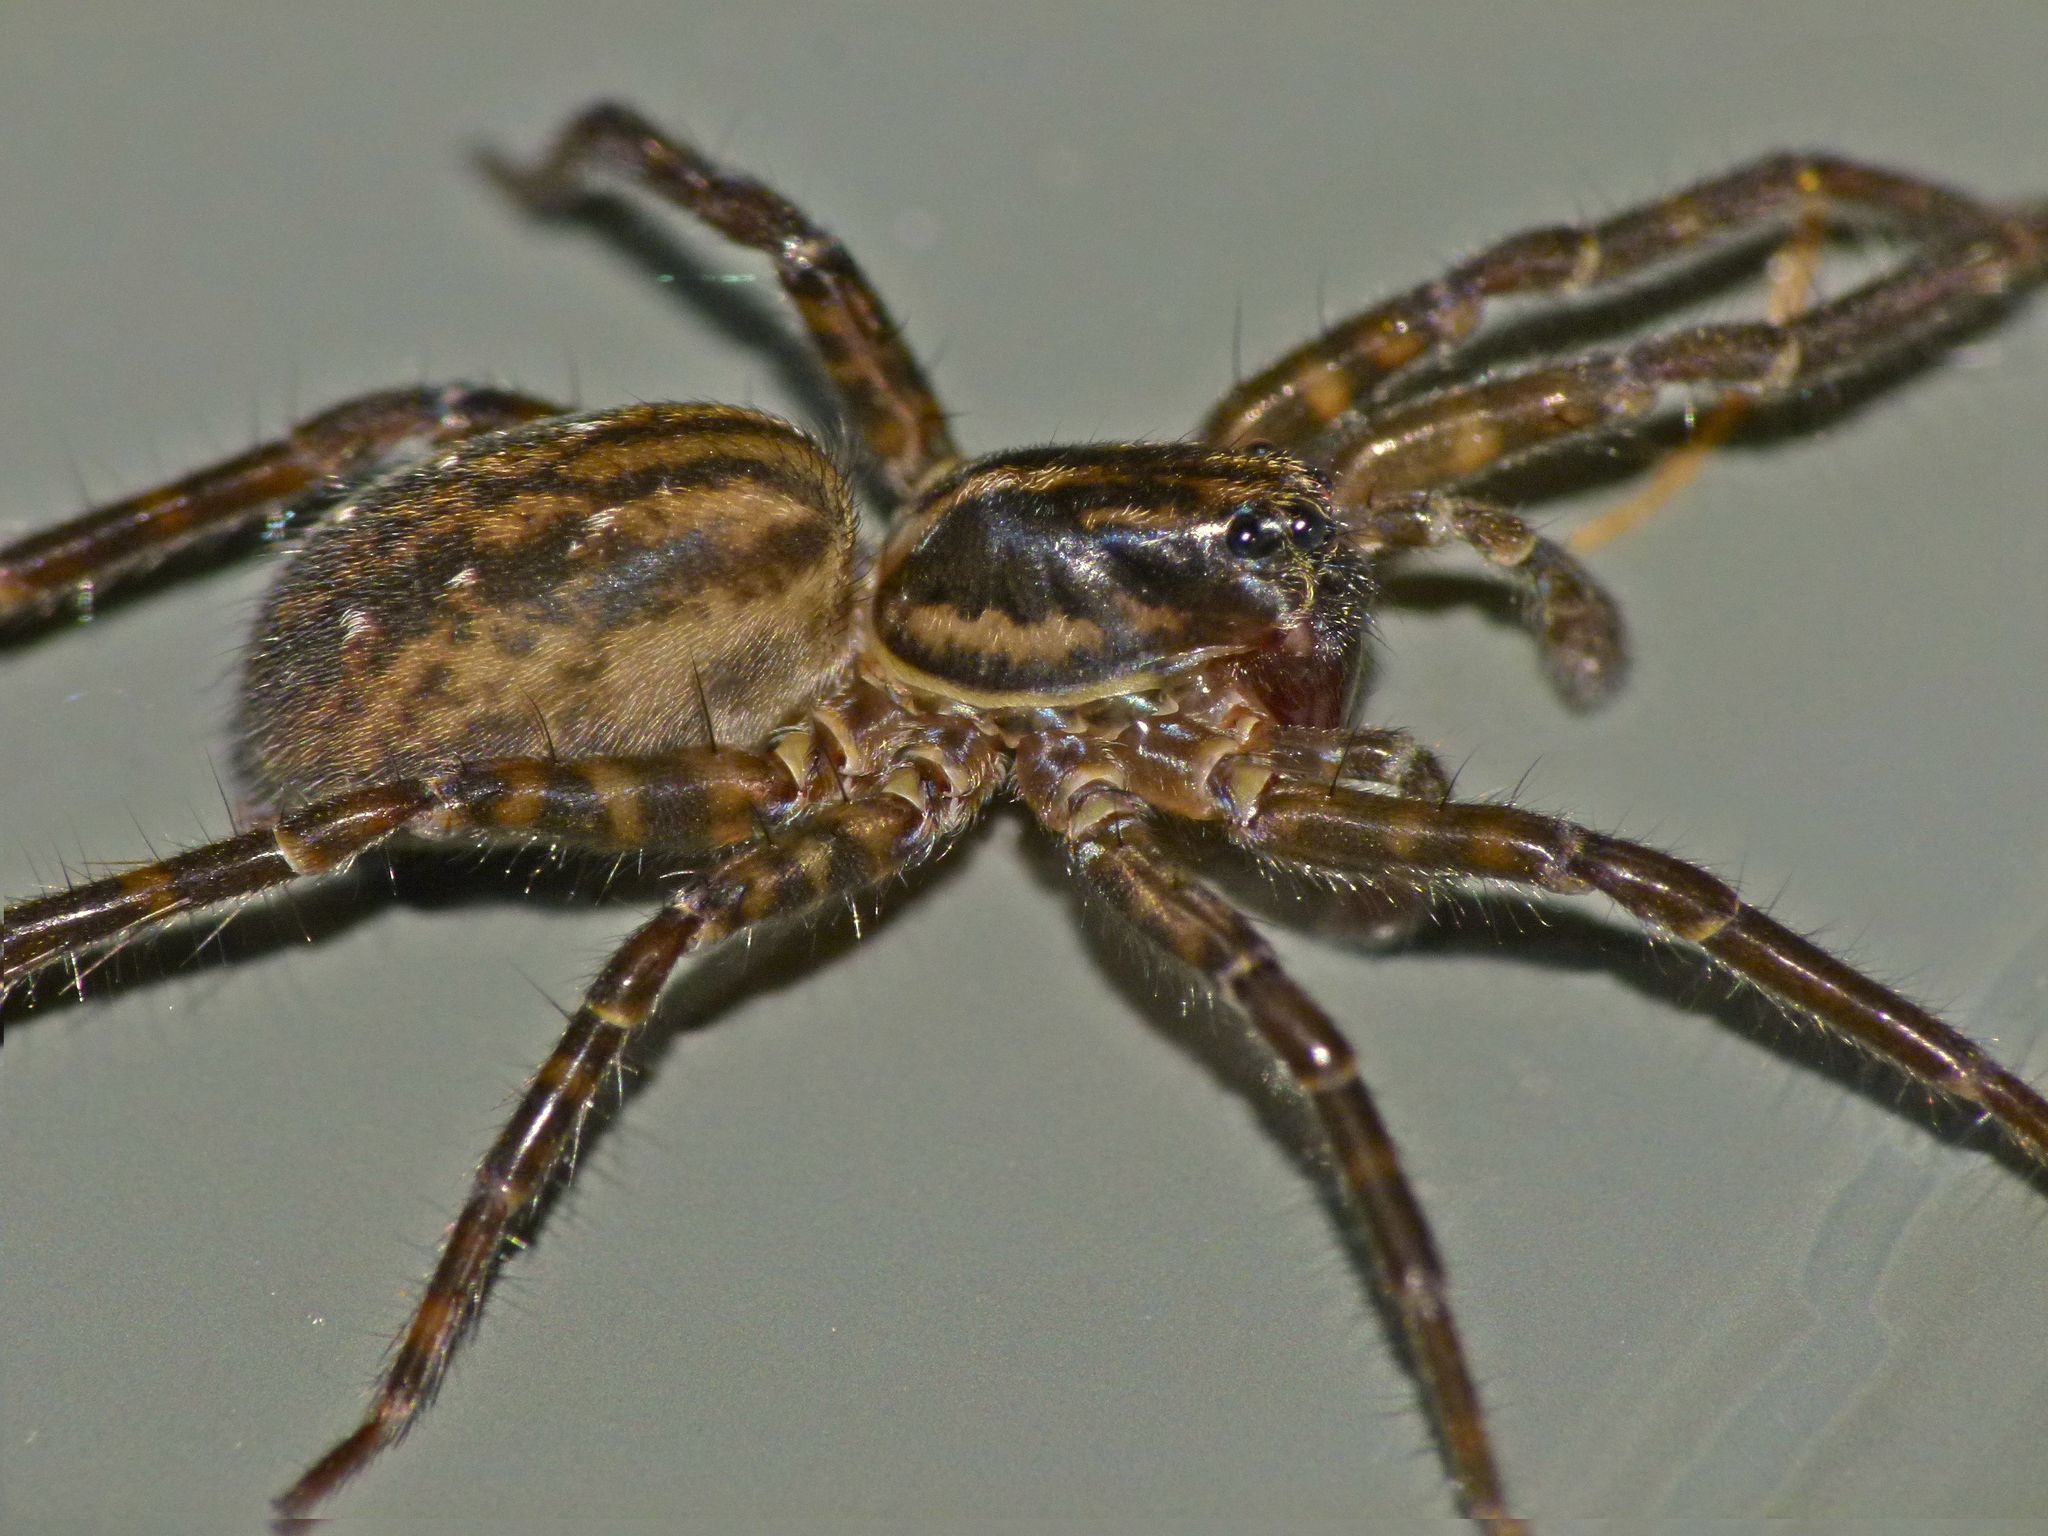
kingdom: Animalia
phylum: Arthropoda
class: Arachnida
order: Araneae
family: Lycosidae
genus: Allotrochosina
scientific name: Allotrochosina schauinslandi
